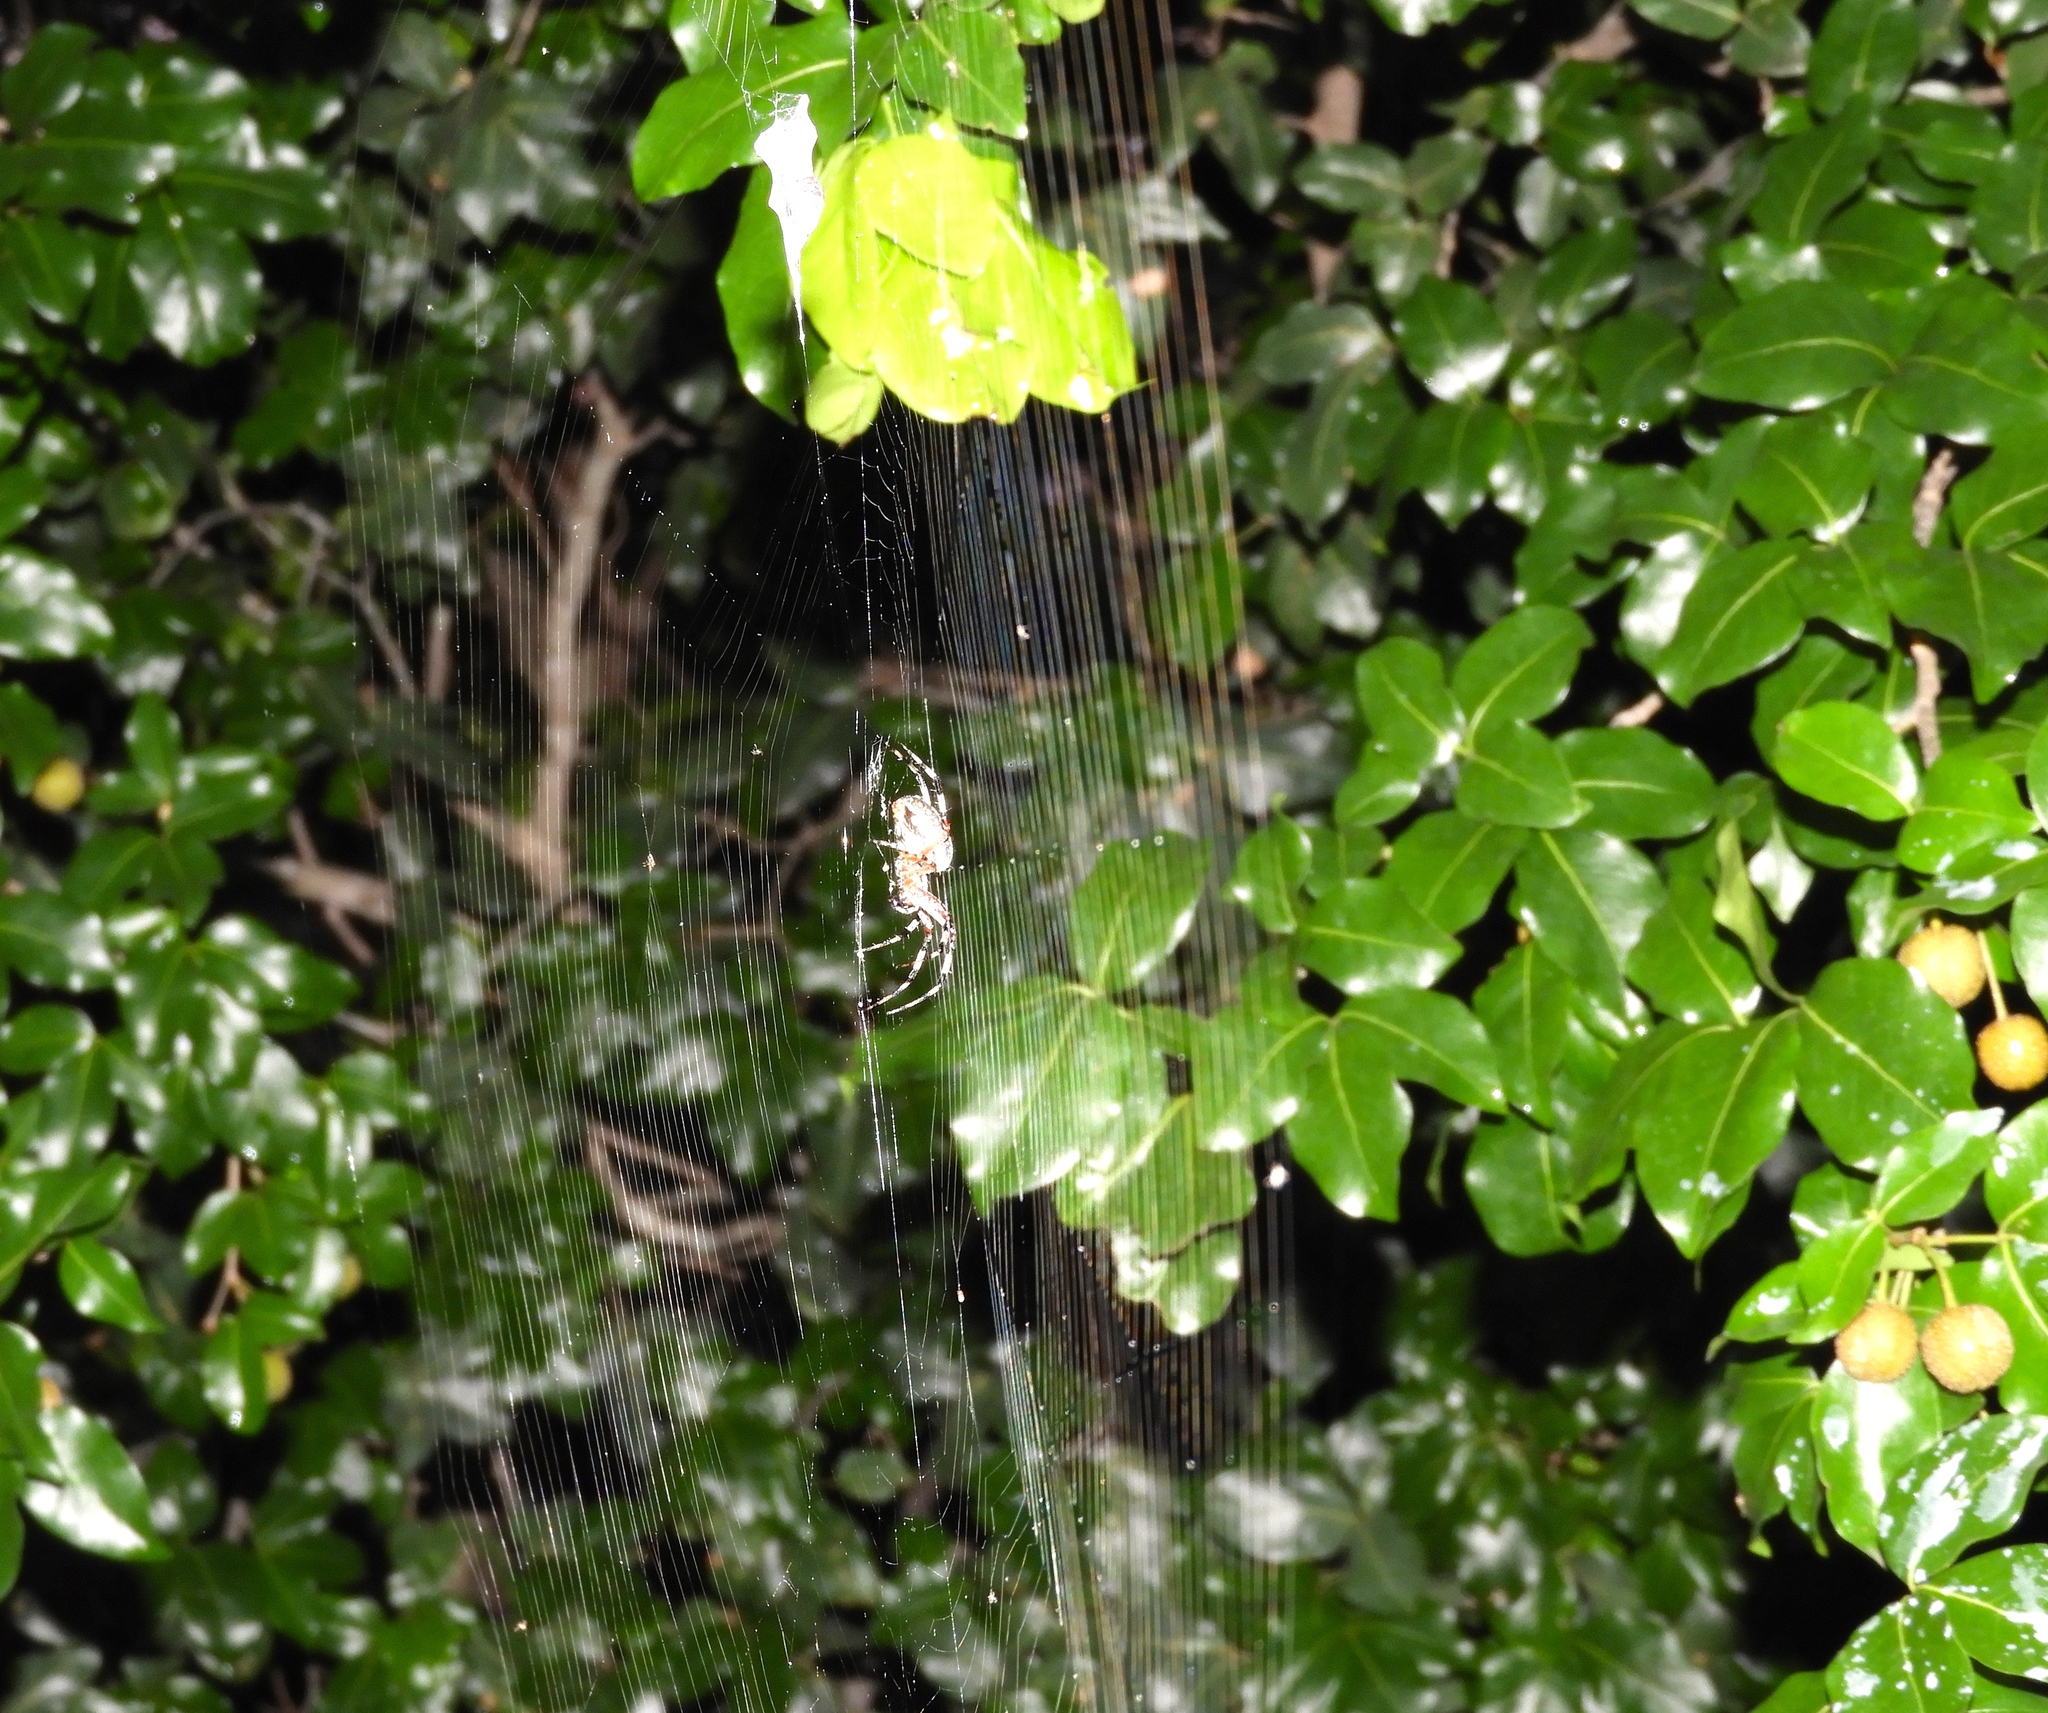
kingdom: Animalia
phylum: Arthropoda
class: Arachnida
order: Araneae
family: Araneidae
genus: Neoscona
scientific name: Neoscona
